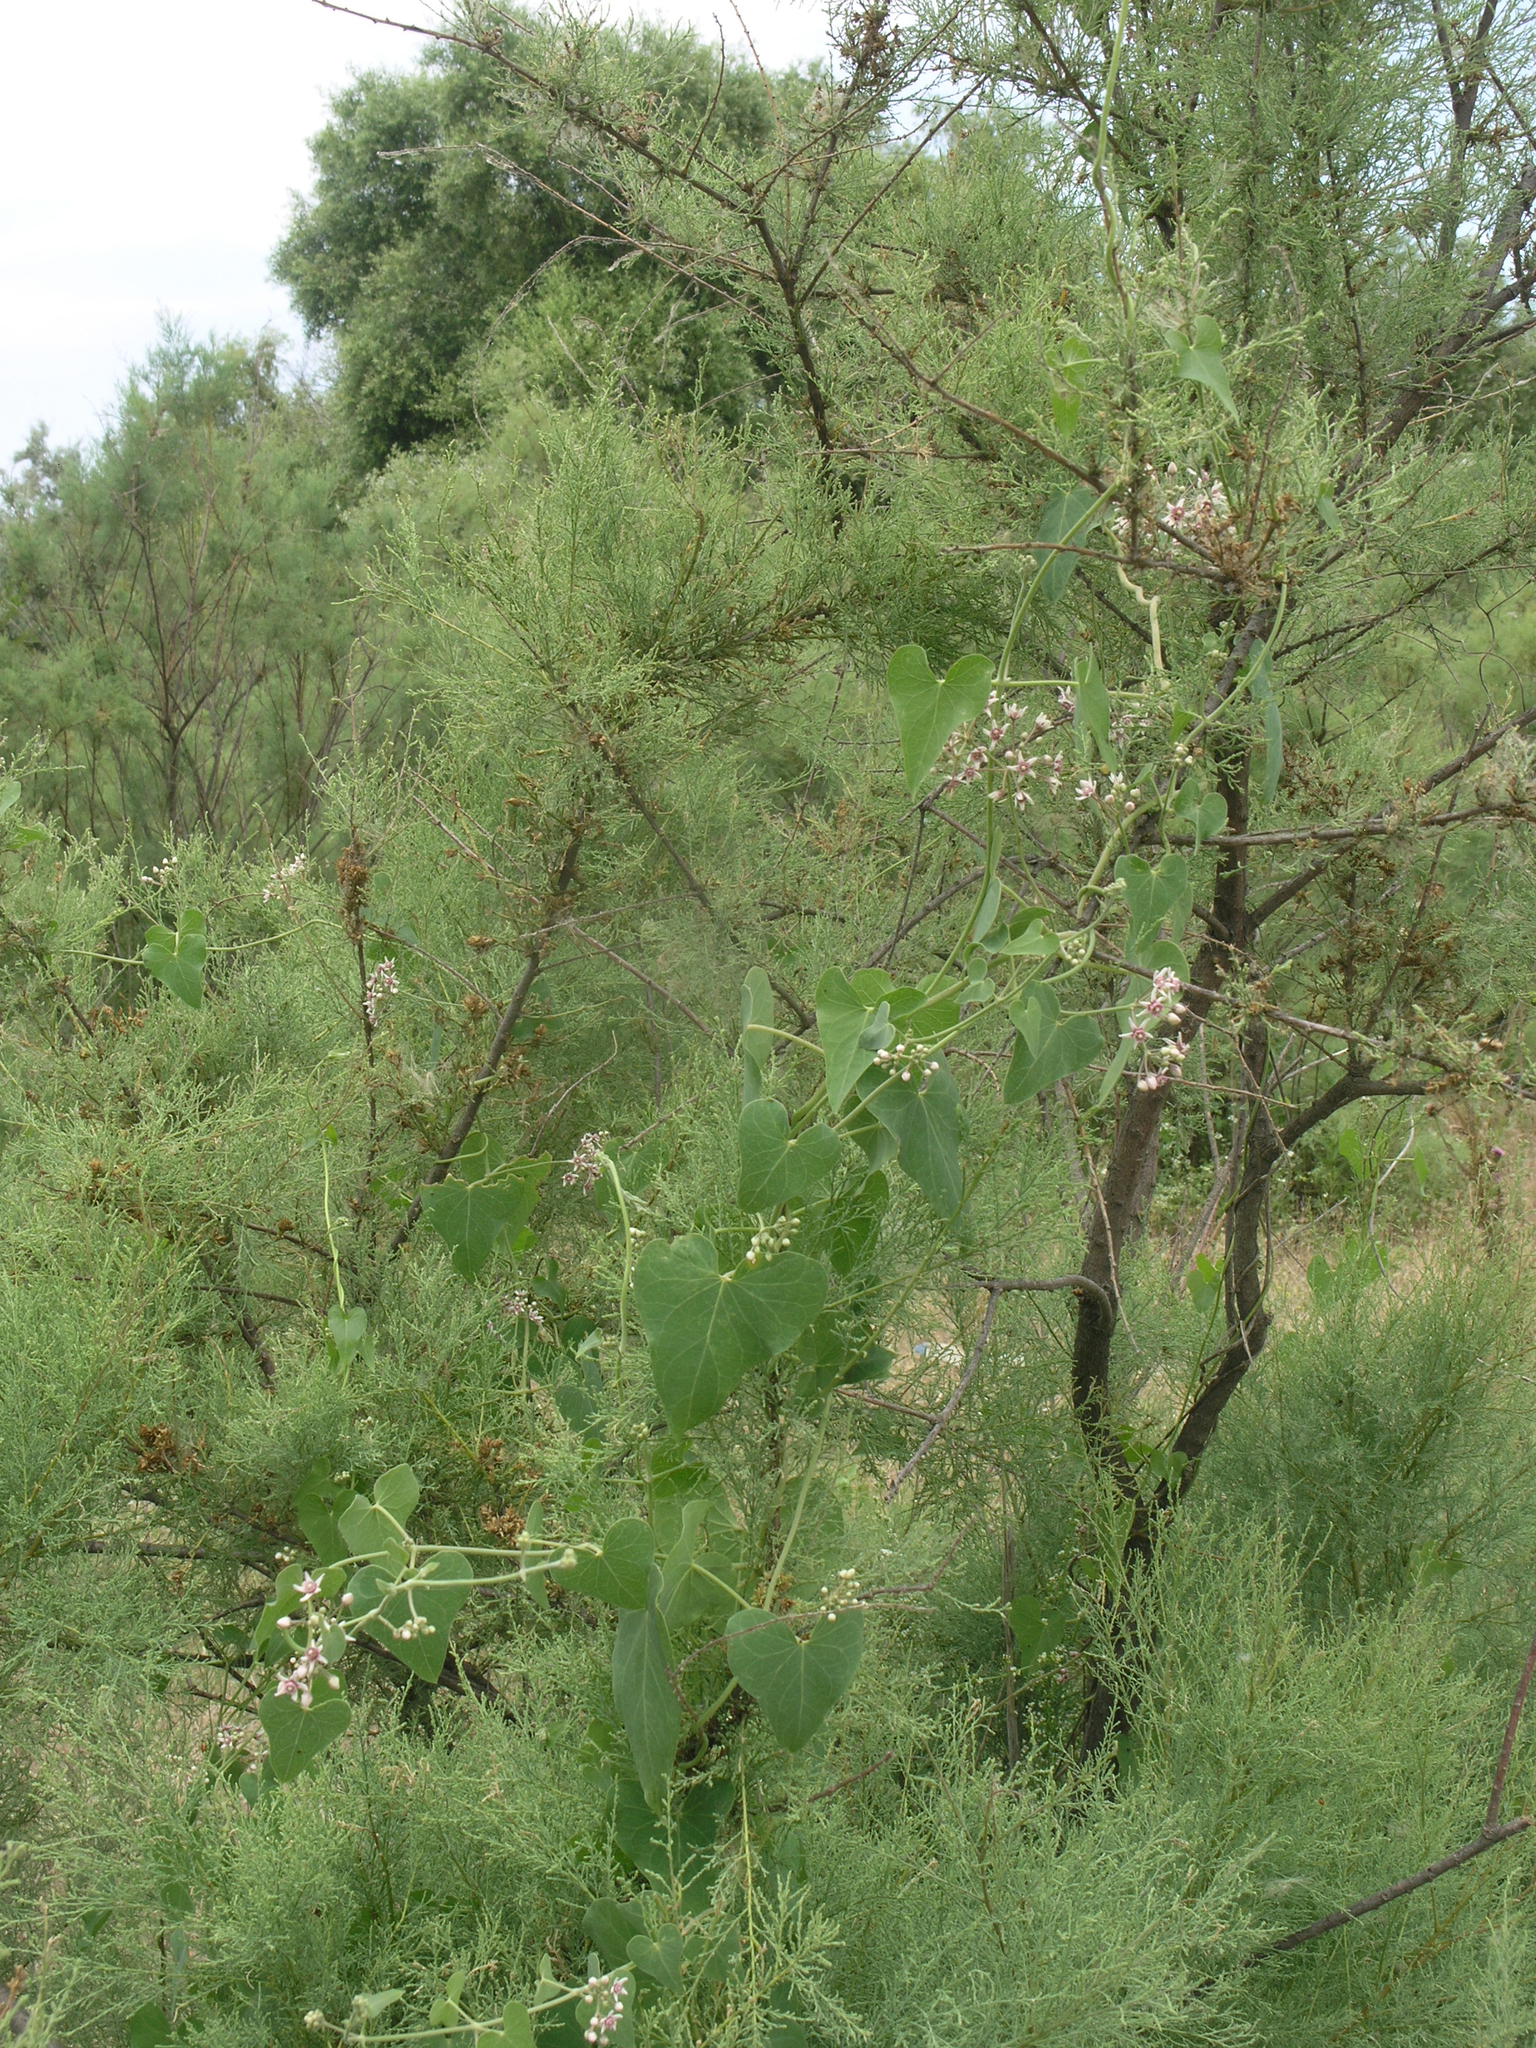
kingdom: Plantae
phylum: Tracheophyta
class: Magnoliopsida
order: Gentianales
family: Apocynaceae
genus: Cynanchum
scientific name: Cynanchum acutum
